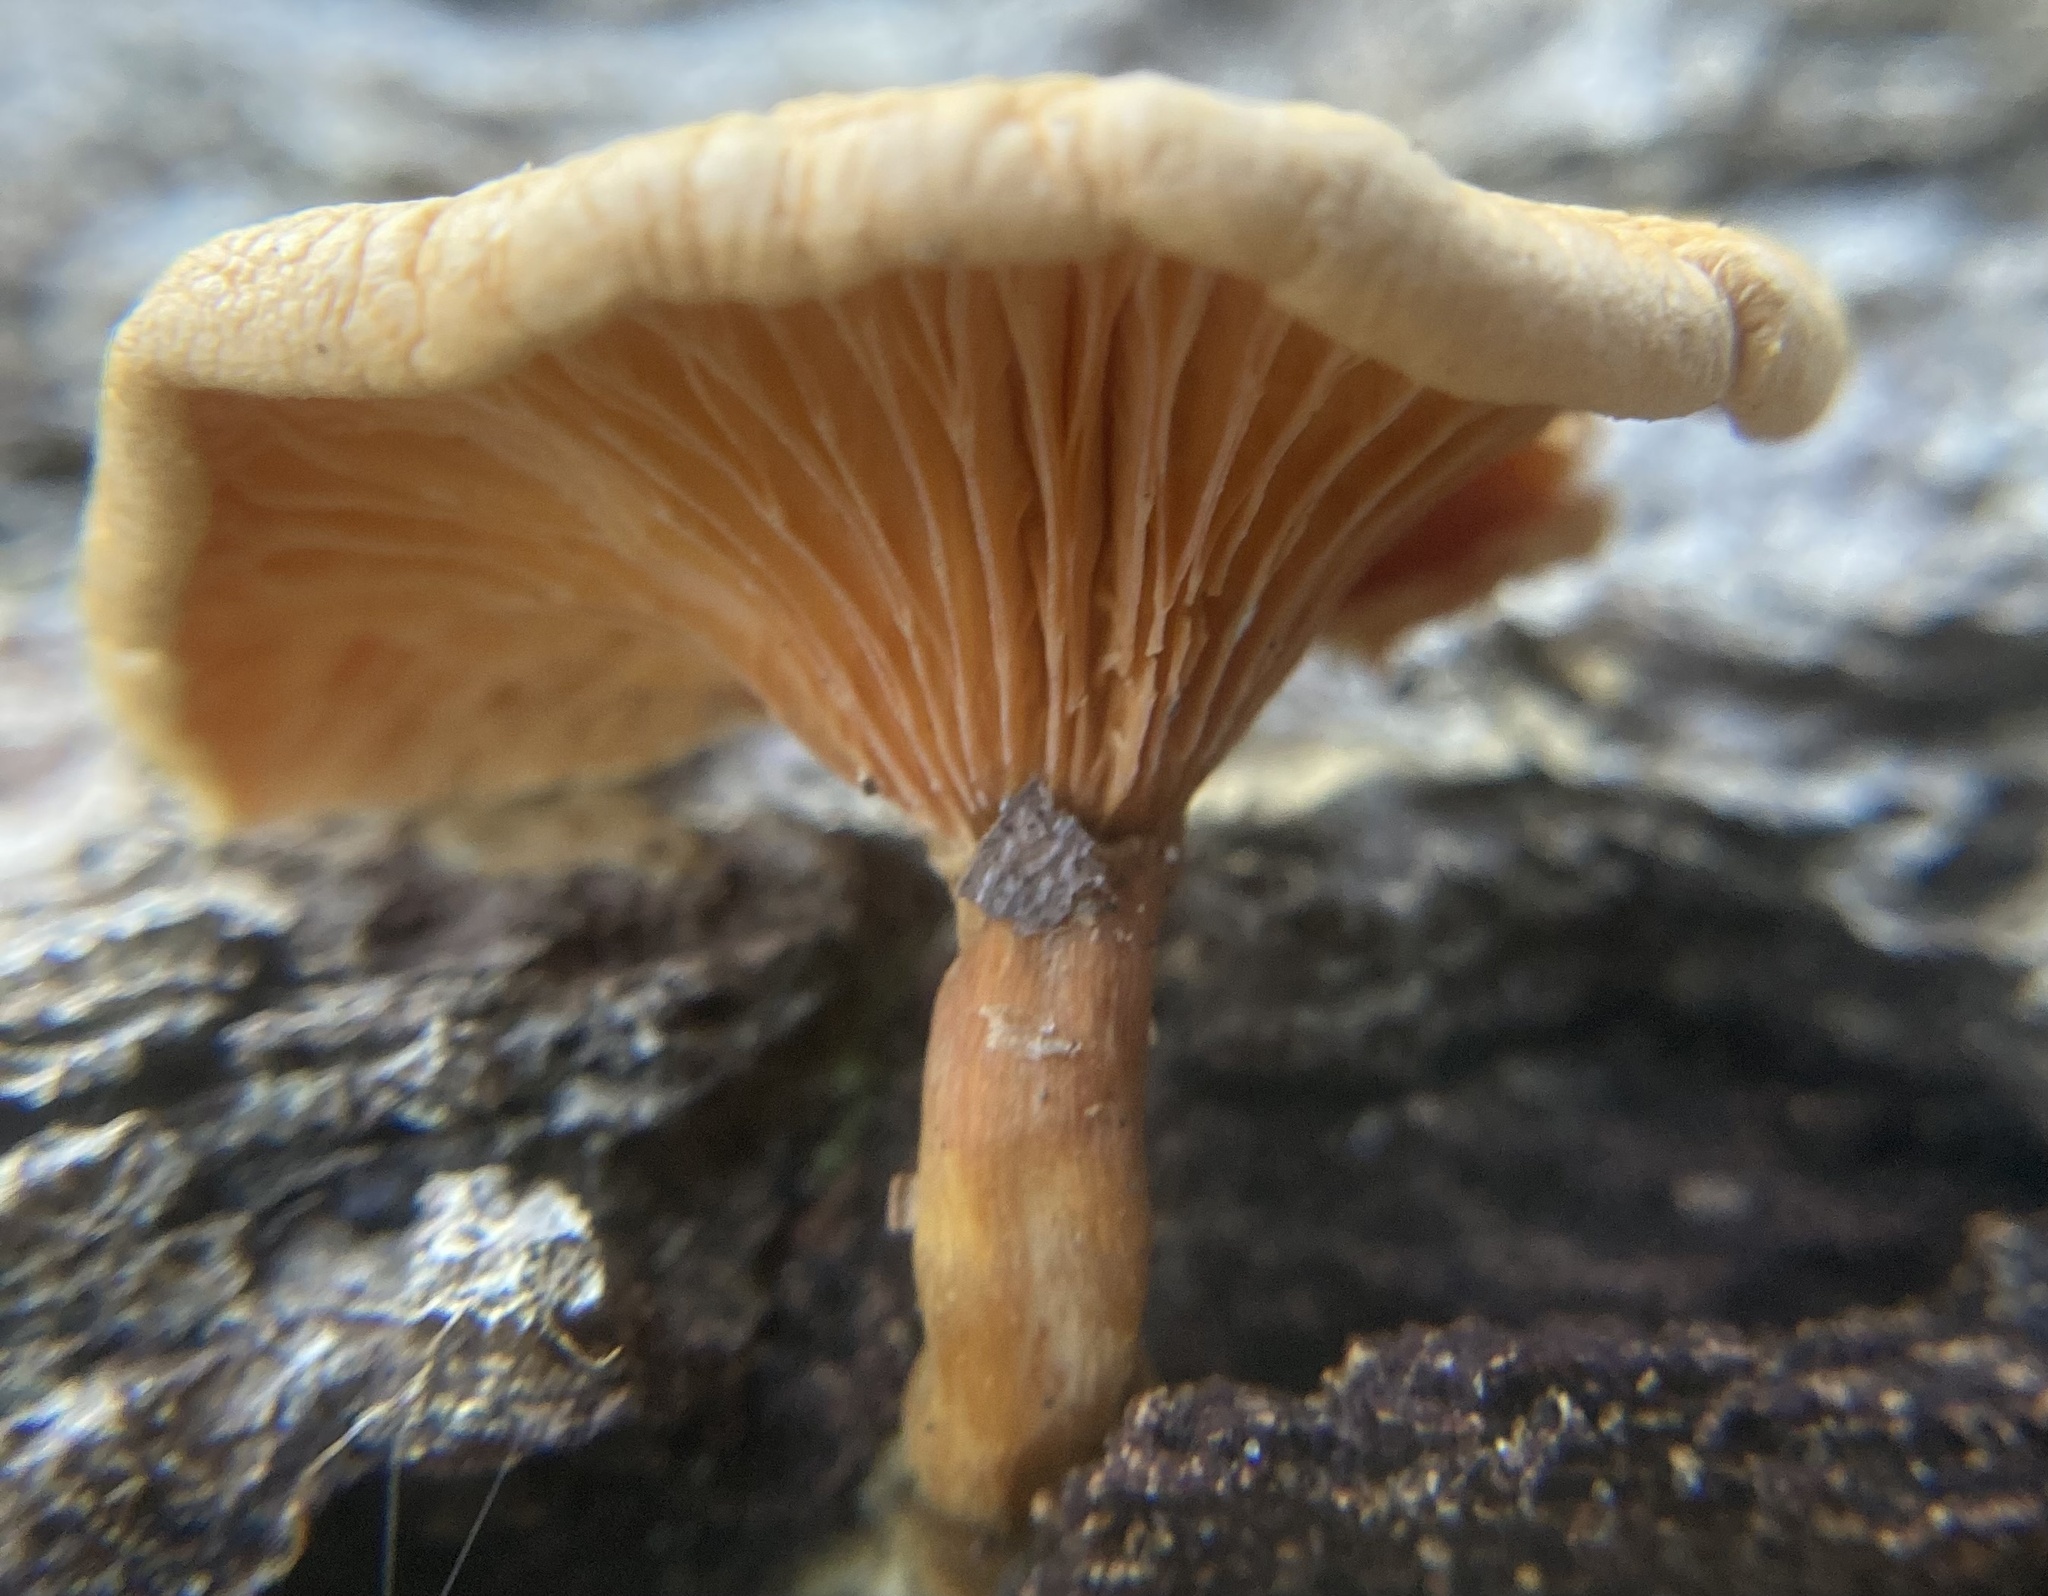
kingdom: Fungi
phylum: Basidiomycota
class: Agaricomycetes
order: Boletales
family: Hygrophoropsidaceae
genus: Hygrophoropsis
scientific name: Hygrophoropsis aurantiaca
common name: False chanterelle
